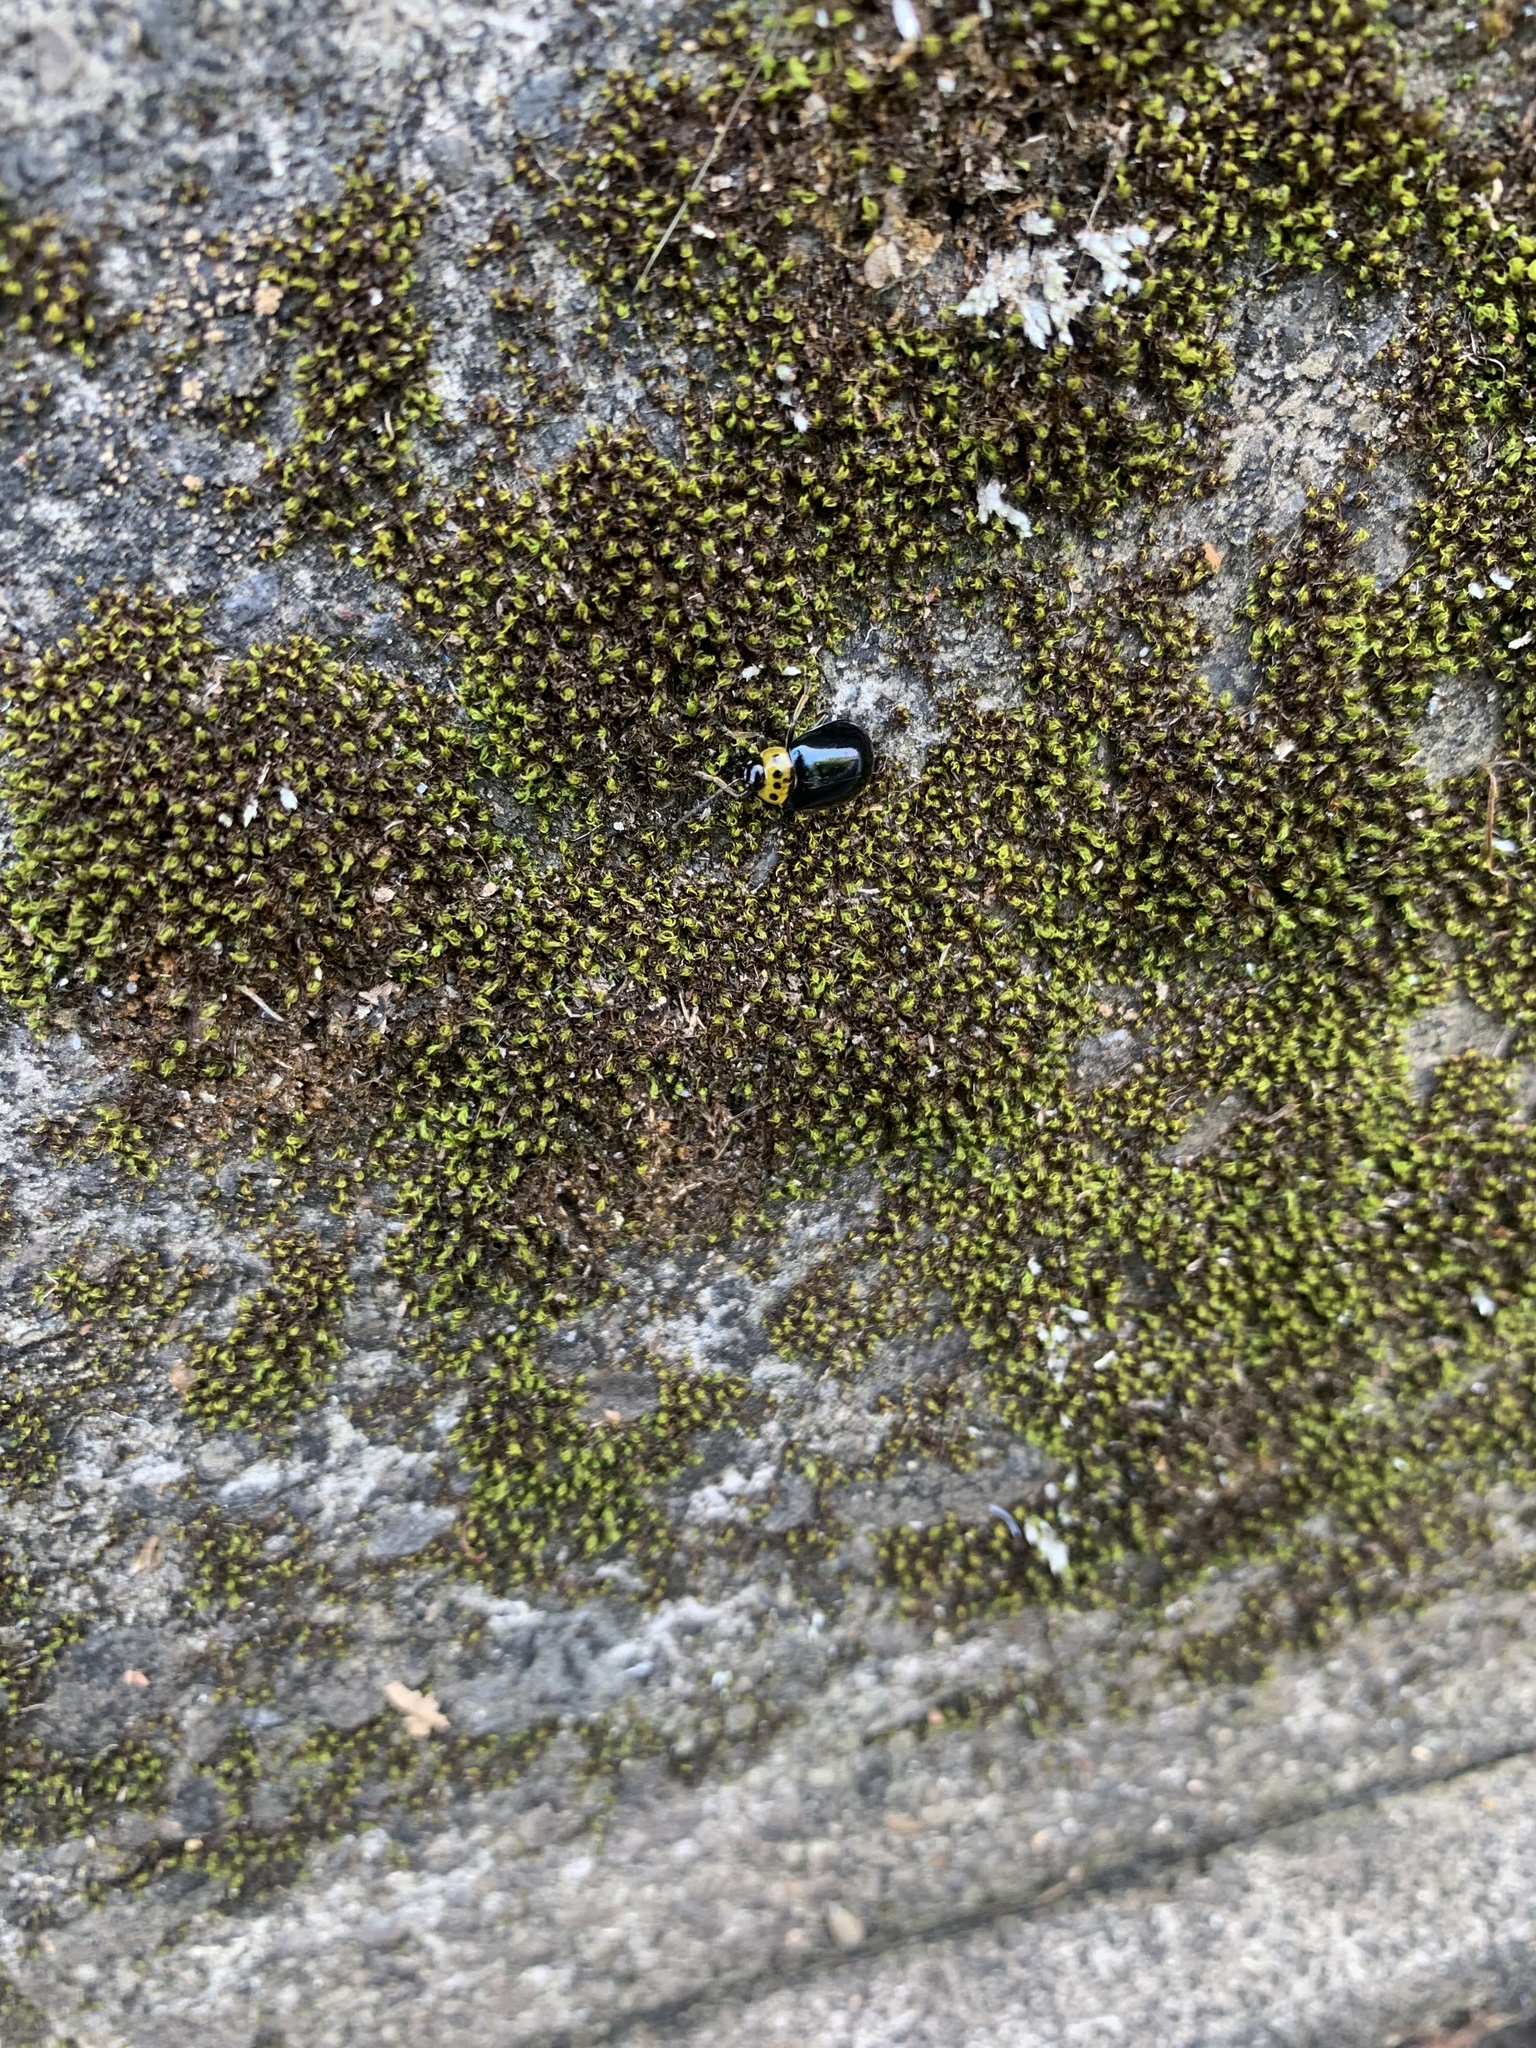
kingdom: Animalia
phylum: Arthropoda
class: Insecta
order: Coleoptera
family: Chrysomelidae
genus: Morphosphaera
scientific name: Morphosphaera japonica
